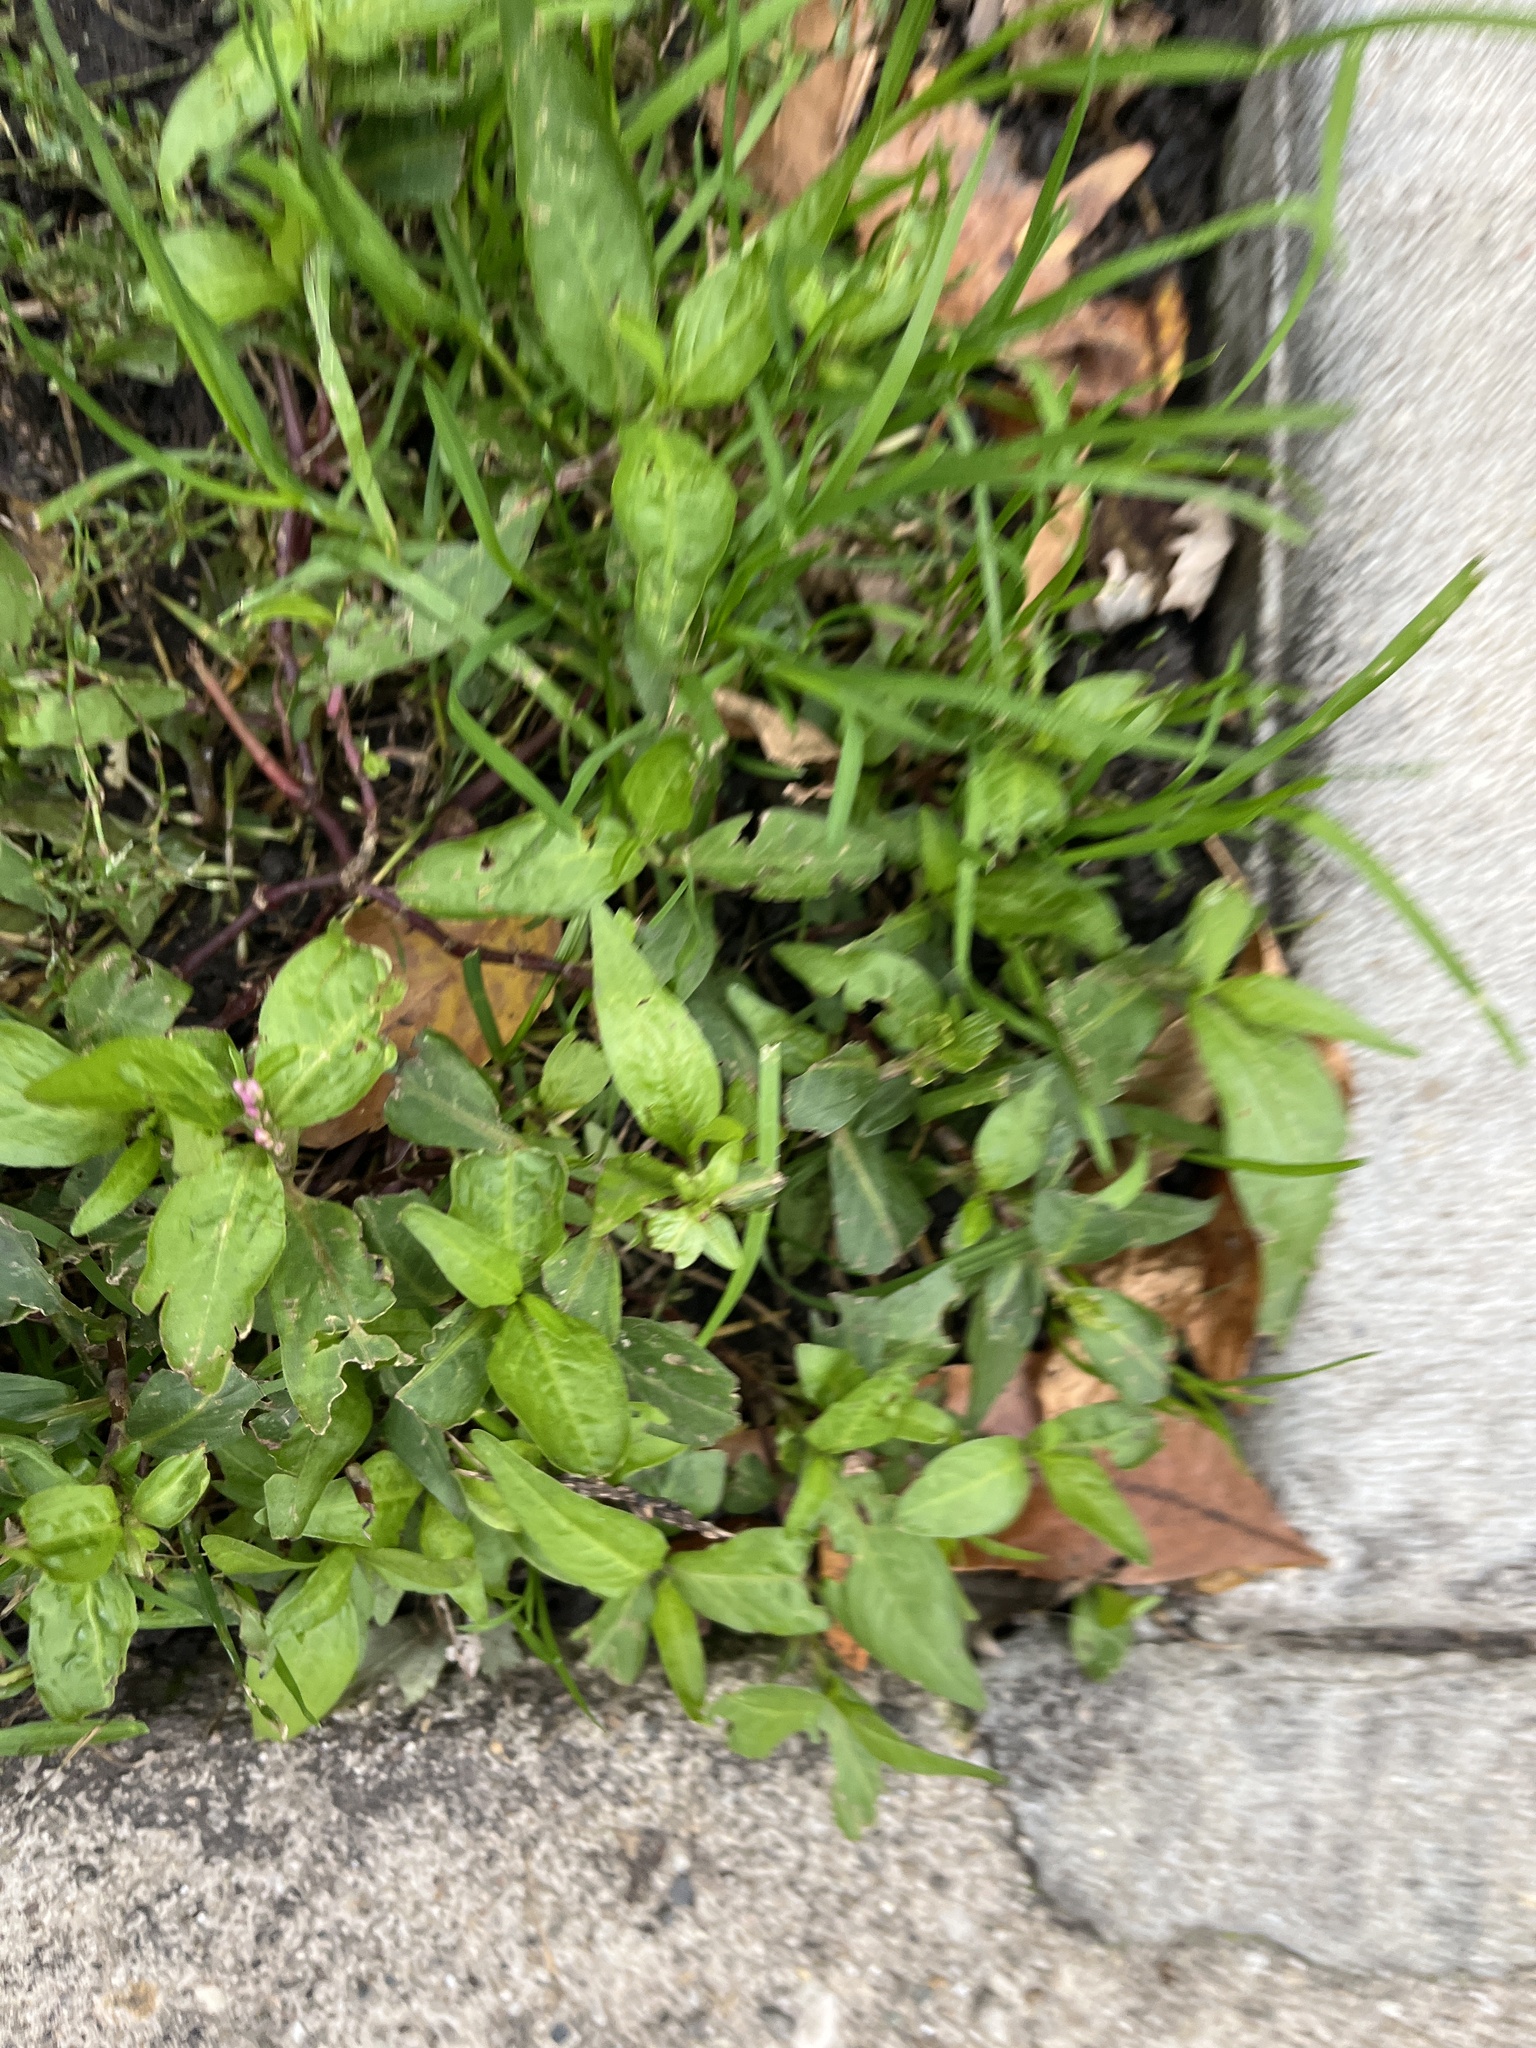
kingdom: Plantae
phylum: Tracheophyta
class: Magnoliopsida
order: Caryophyllales
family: Polygonaceae
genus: Persicaria
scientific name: Persicaria longiseta
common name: Bristly lady's-thumb
